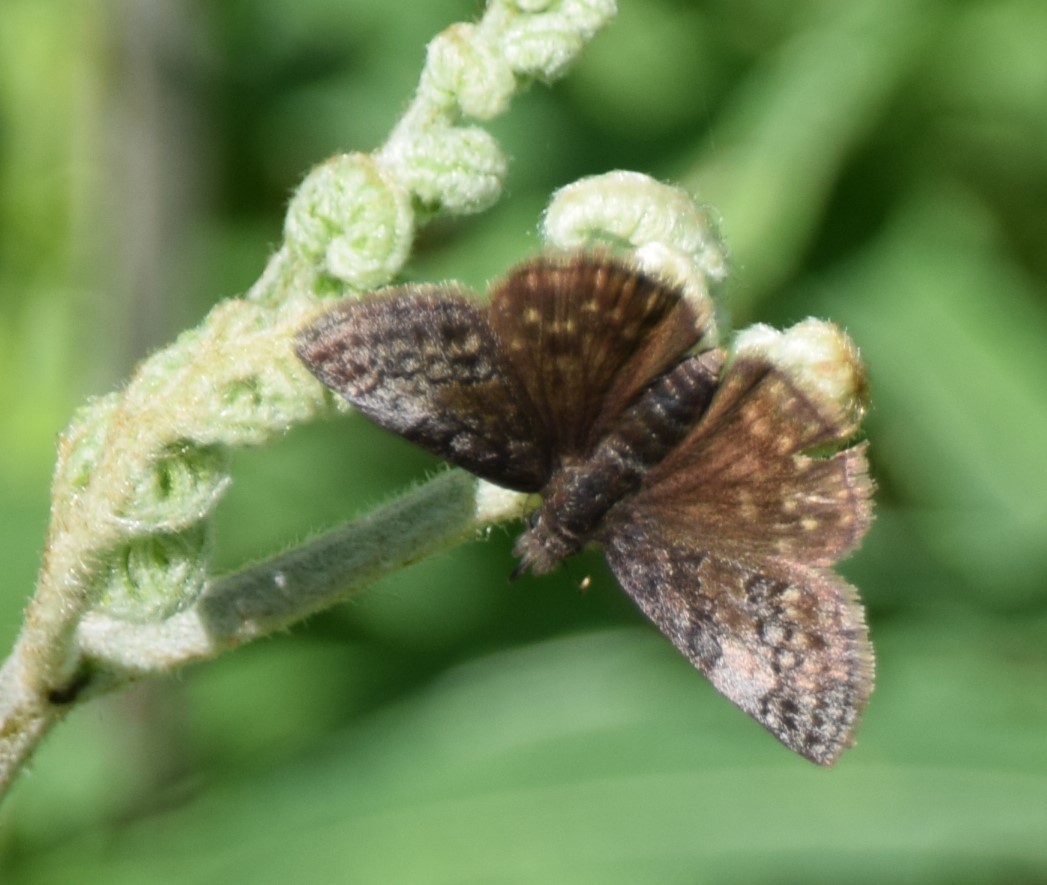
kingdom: Animalia
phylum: Arthropoda
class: Insecta
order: Lepidoptera
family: Hesperiidae
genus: Erynnis
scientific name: Erynnis icelus
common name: Dreamy duskywing
